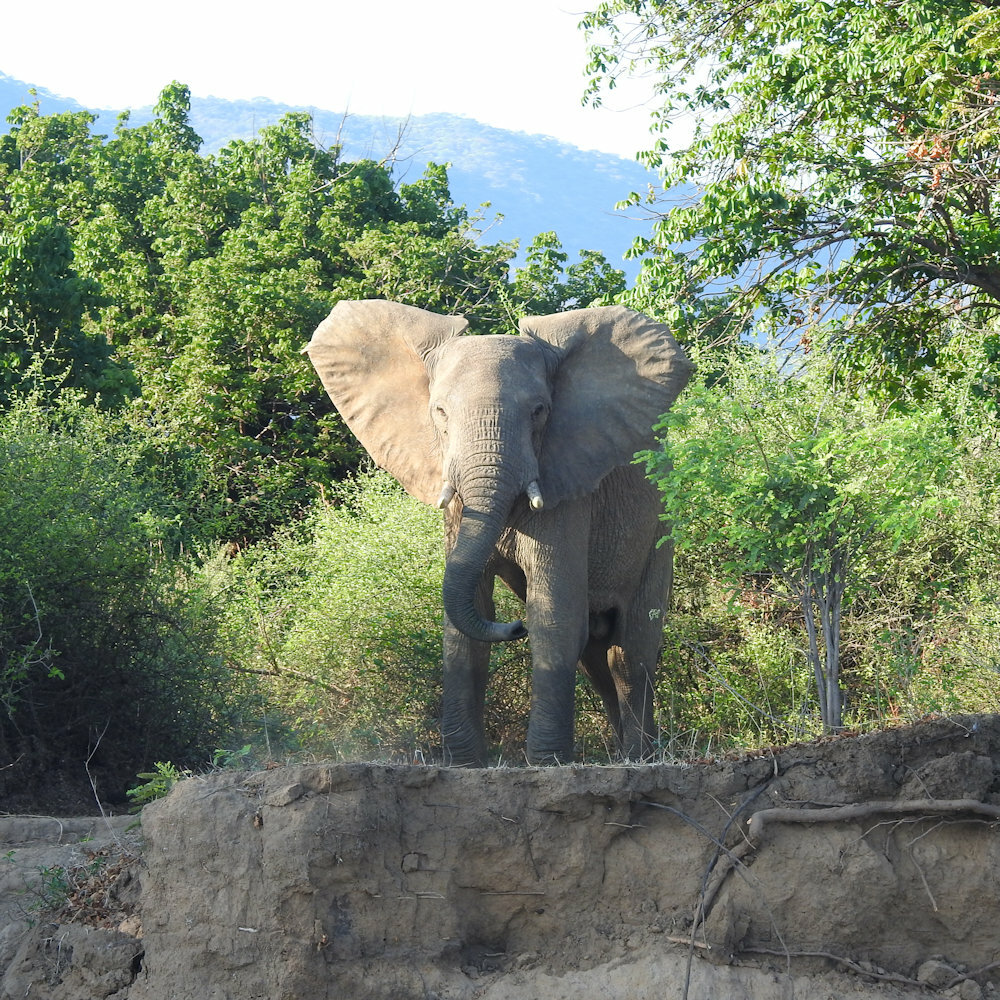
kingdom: Animalia
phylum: Chordata
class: Mammalia
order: Proboscidea
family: Elephantidae
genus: Loxodonta
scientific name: Loxodonta africana
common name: African elephant
